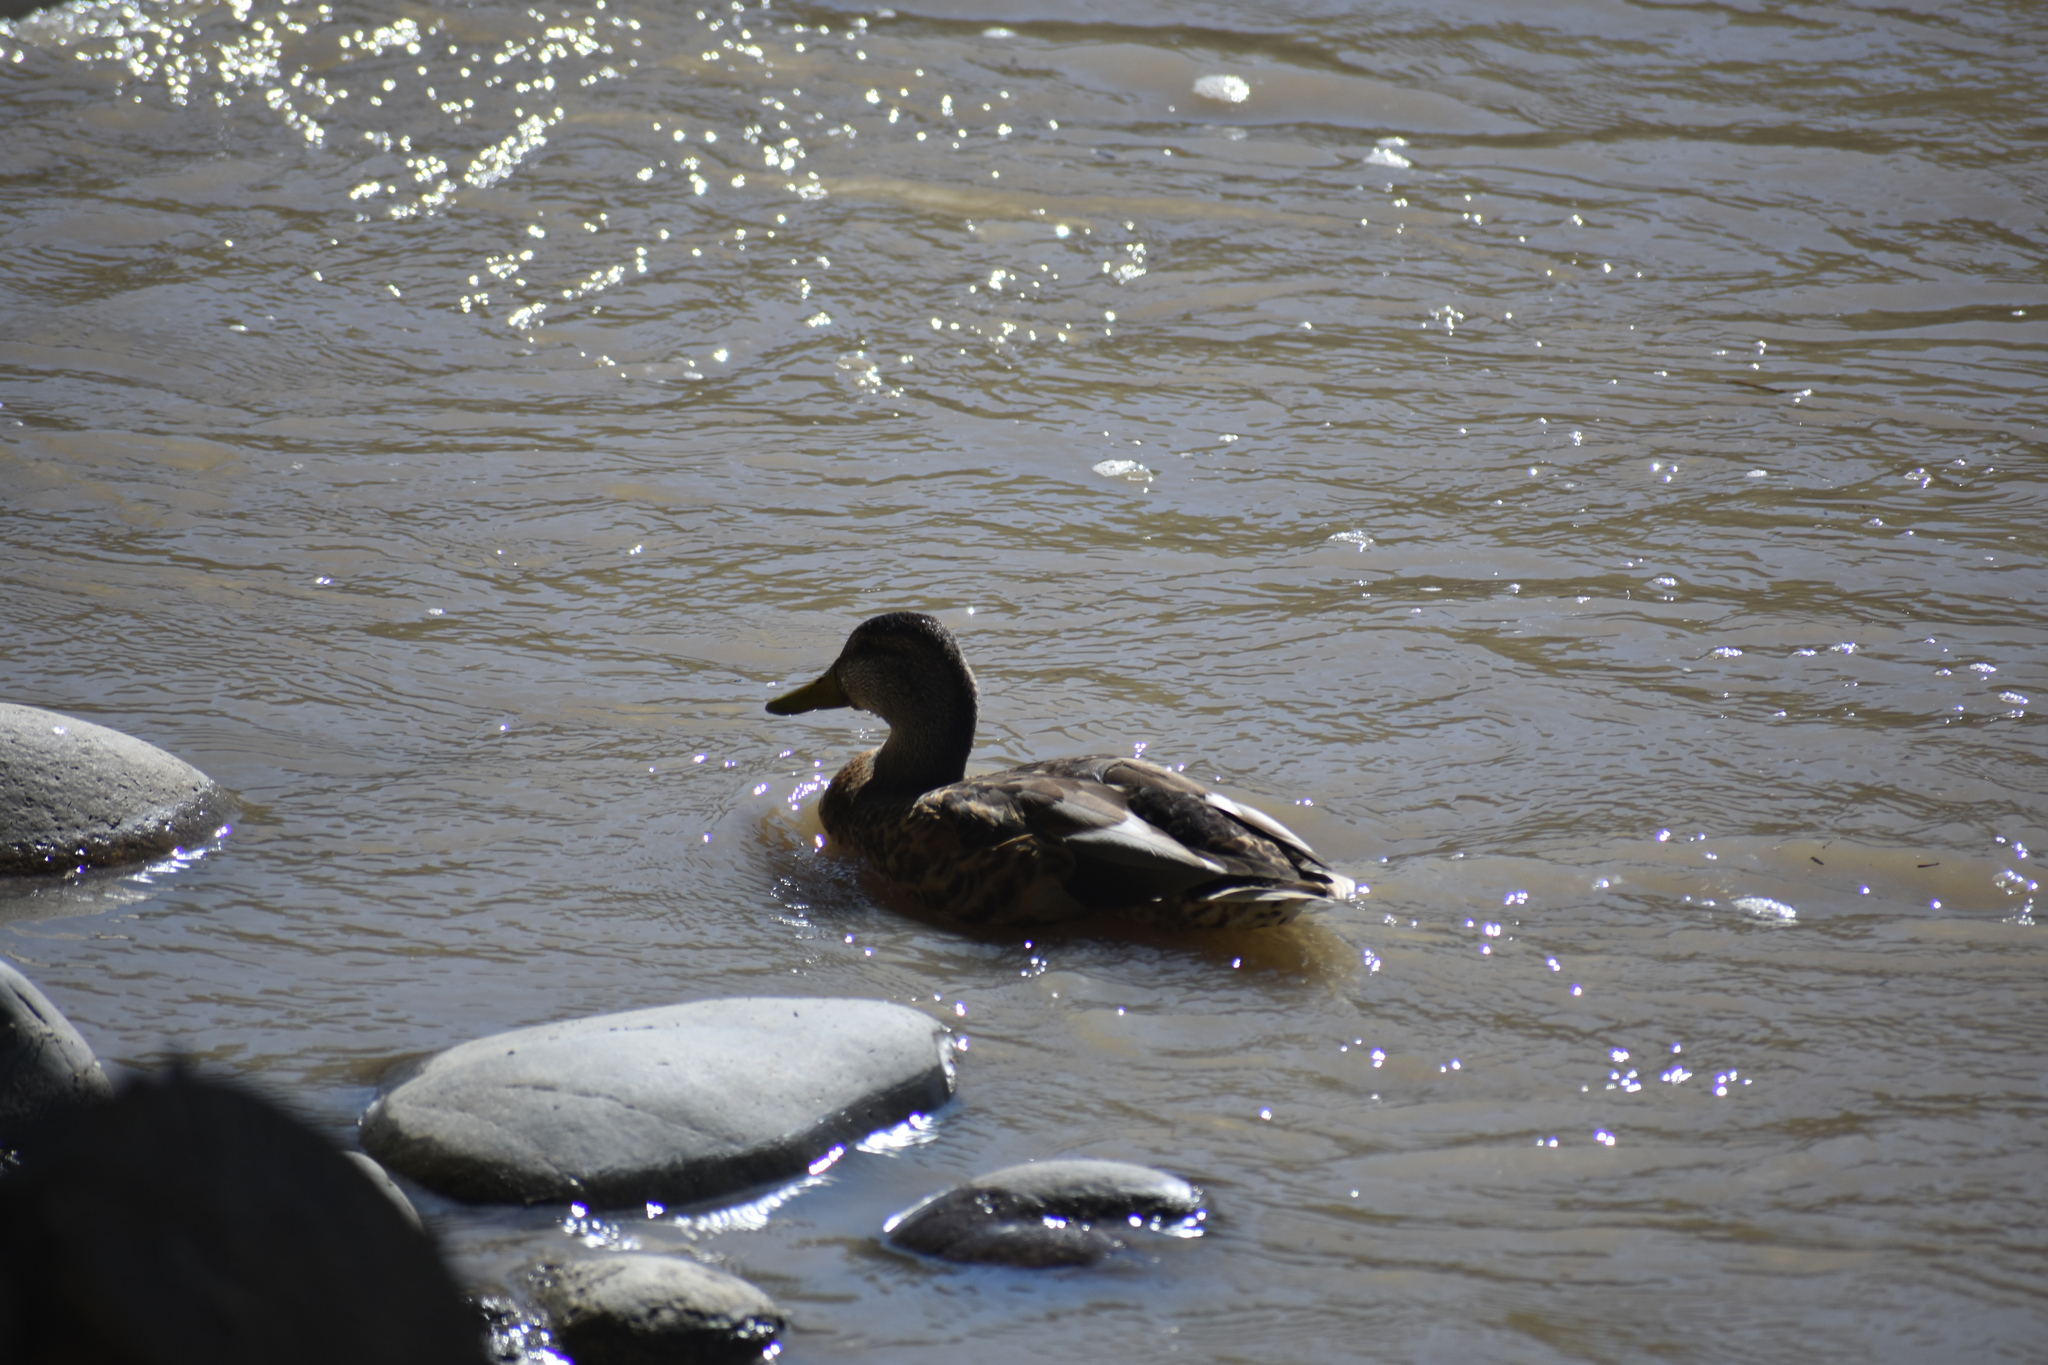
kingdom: Animalia
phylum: Chordata
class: Aves
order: Anseriformes
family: Anatidae
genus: Anas
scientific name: Anas platyrhynchos
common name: Mallard
